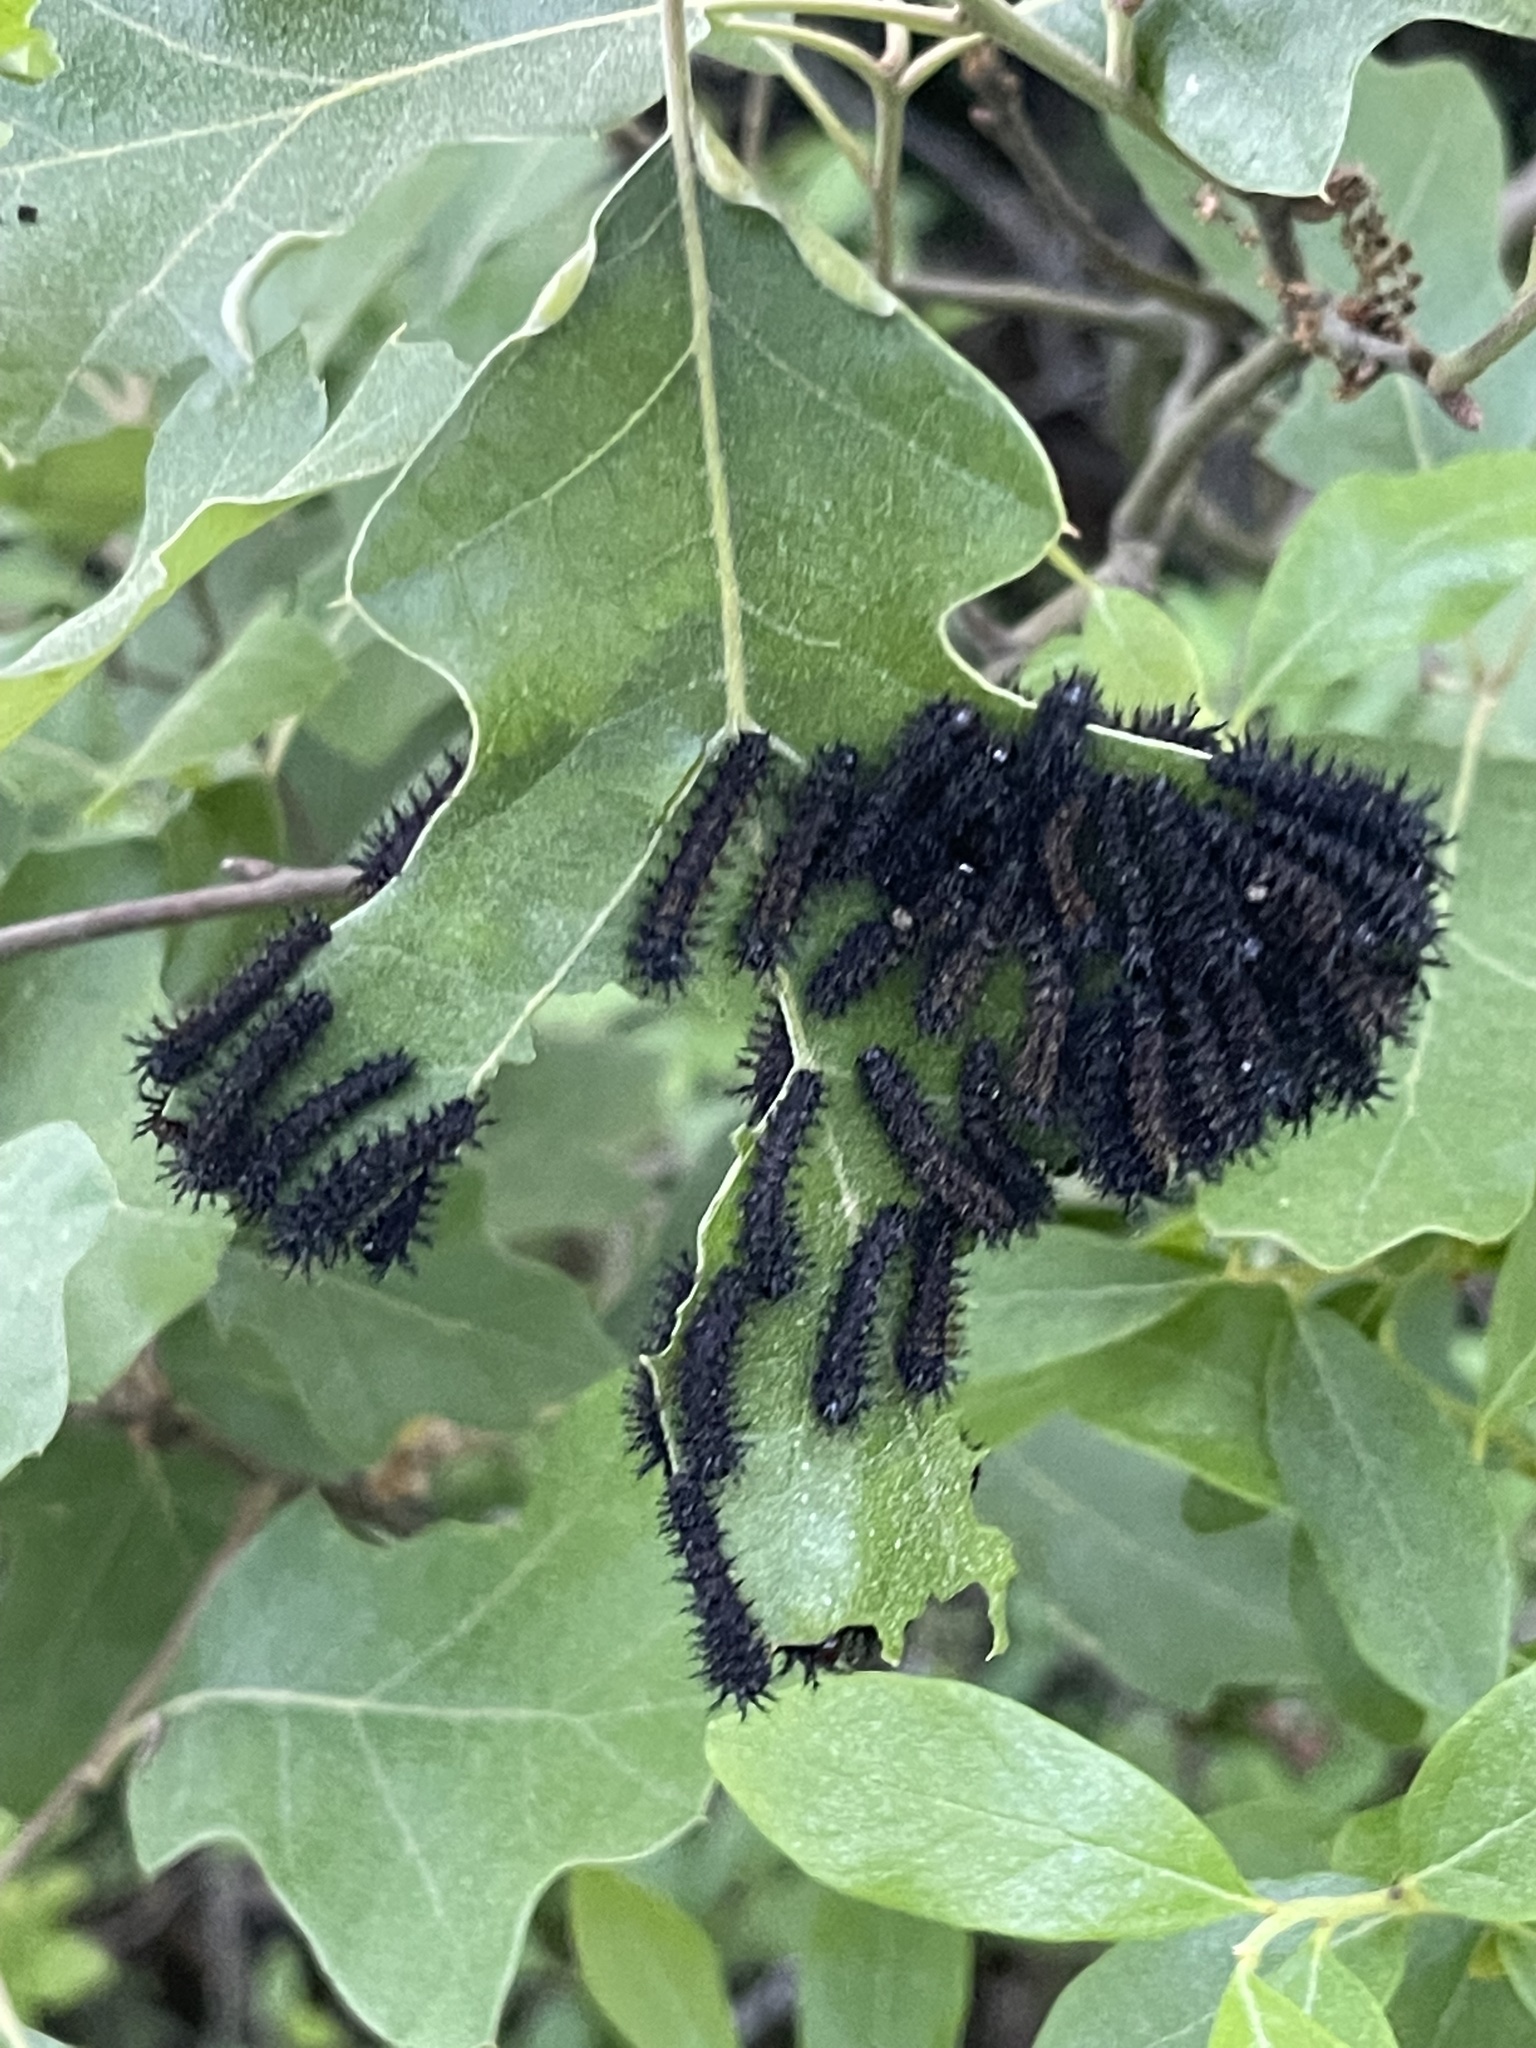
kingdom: Animalia
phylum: Arthropoda
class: Insecta
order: Lepidoptera
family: Saturniidae
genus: Hemileuca
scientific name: Hemileuca maia
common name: Eastern buckmoth
